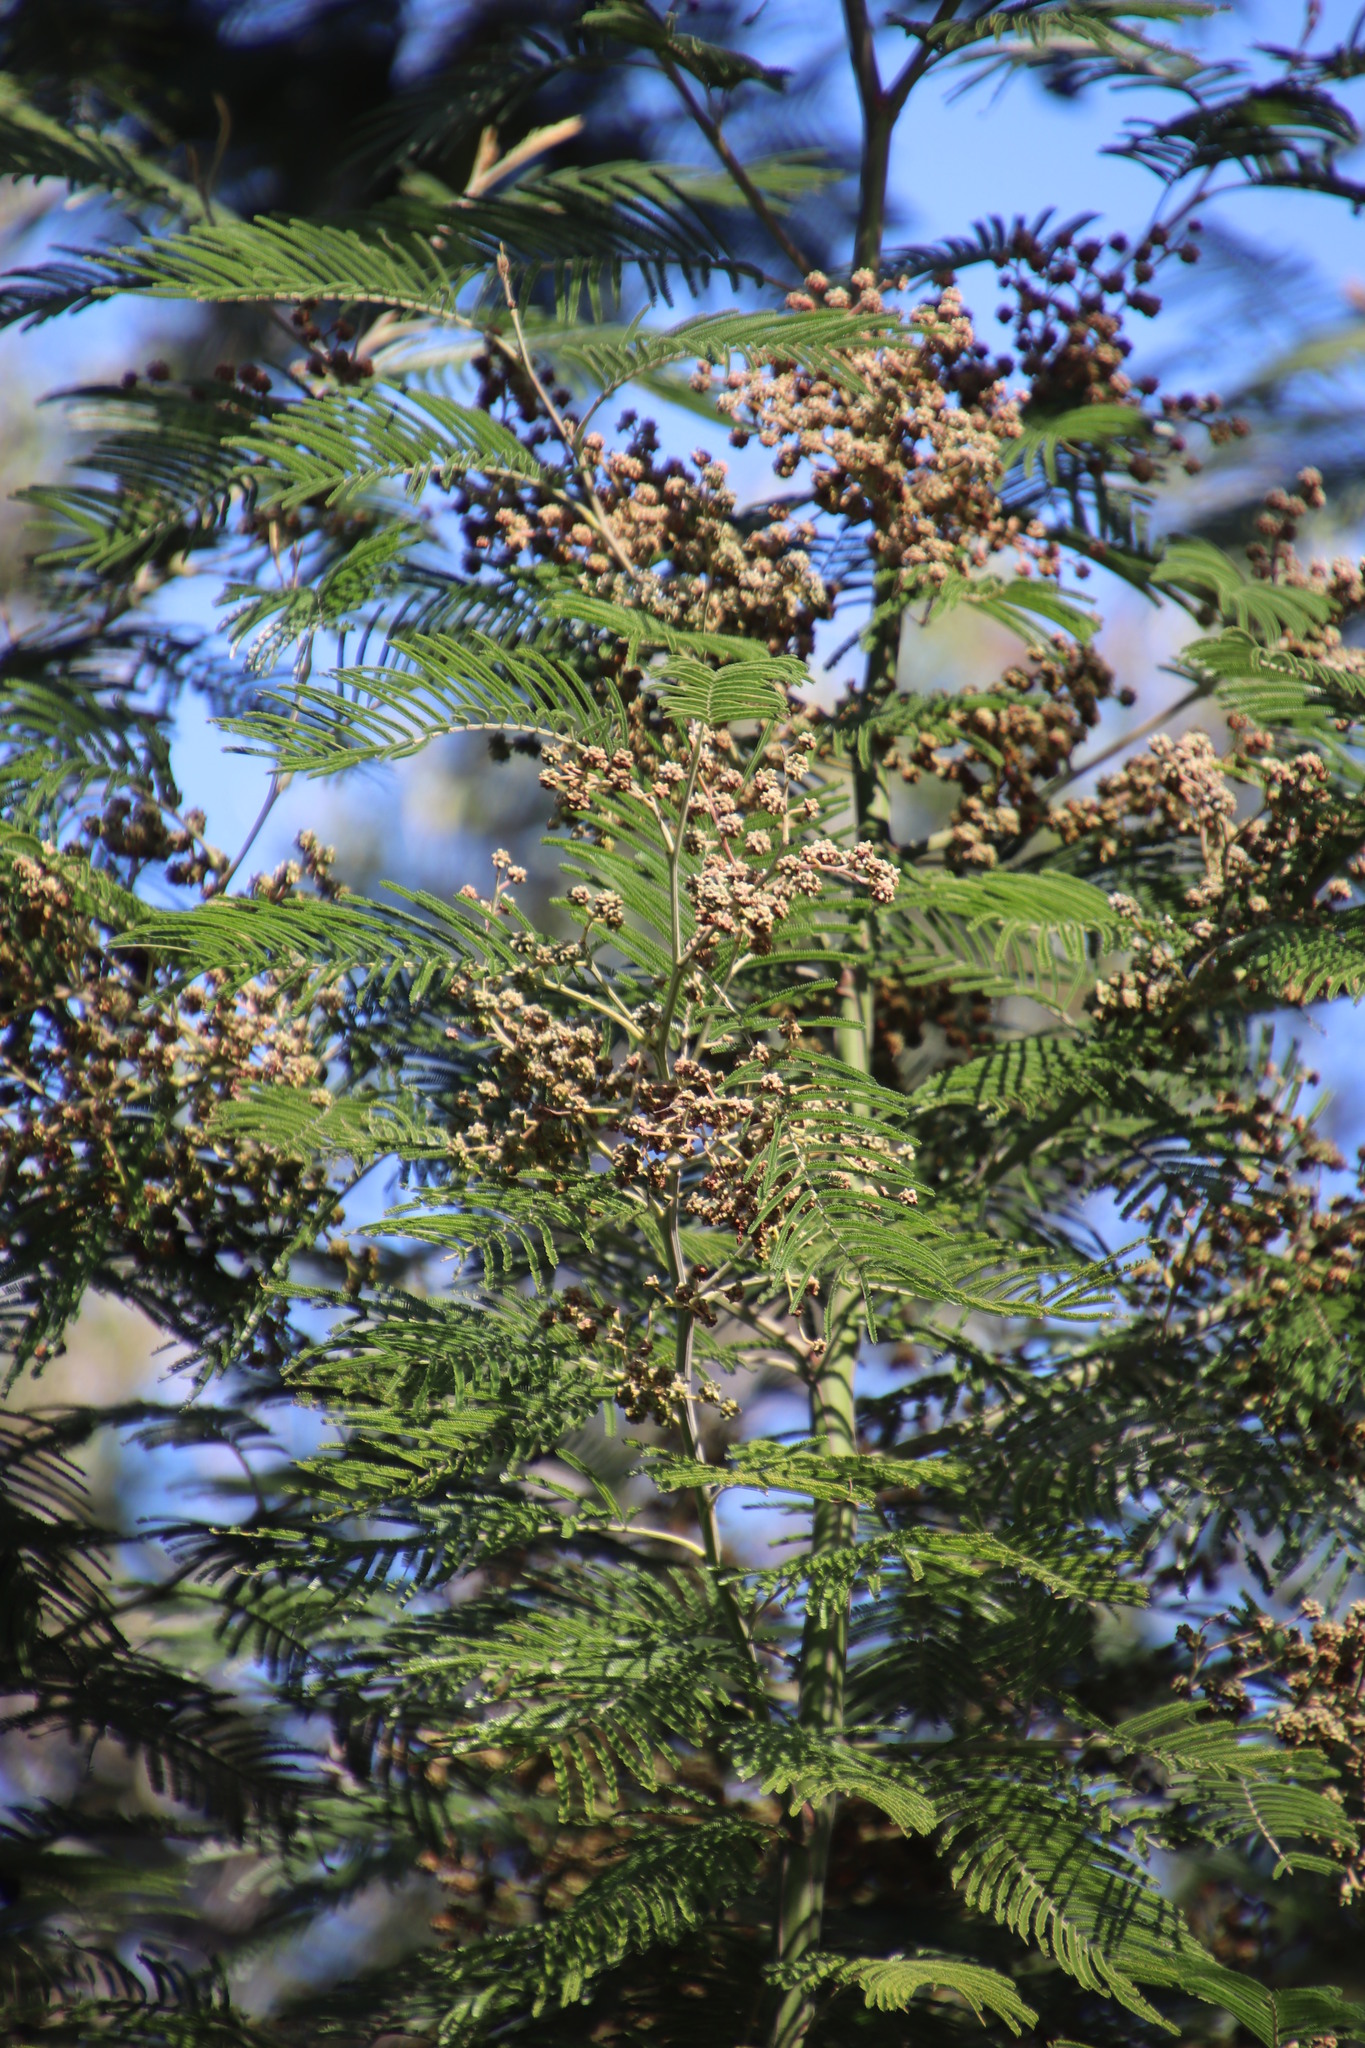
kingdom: Animalia
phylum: Arthropoda
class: Insecta
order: Diptera
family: Cecidomyiidae
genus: Dasineura
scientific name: Dasineura rubiformis
